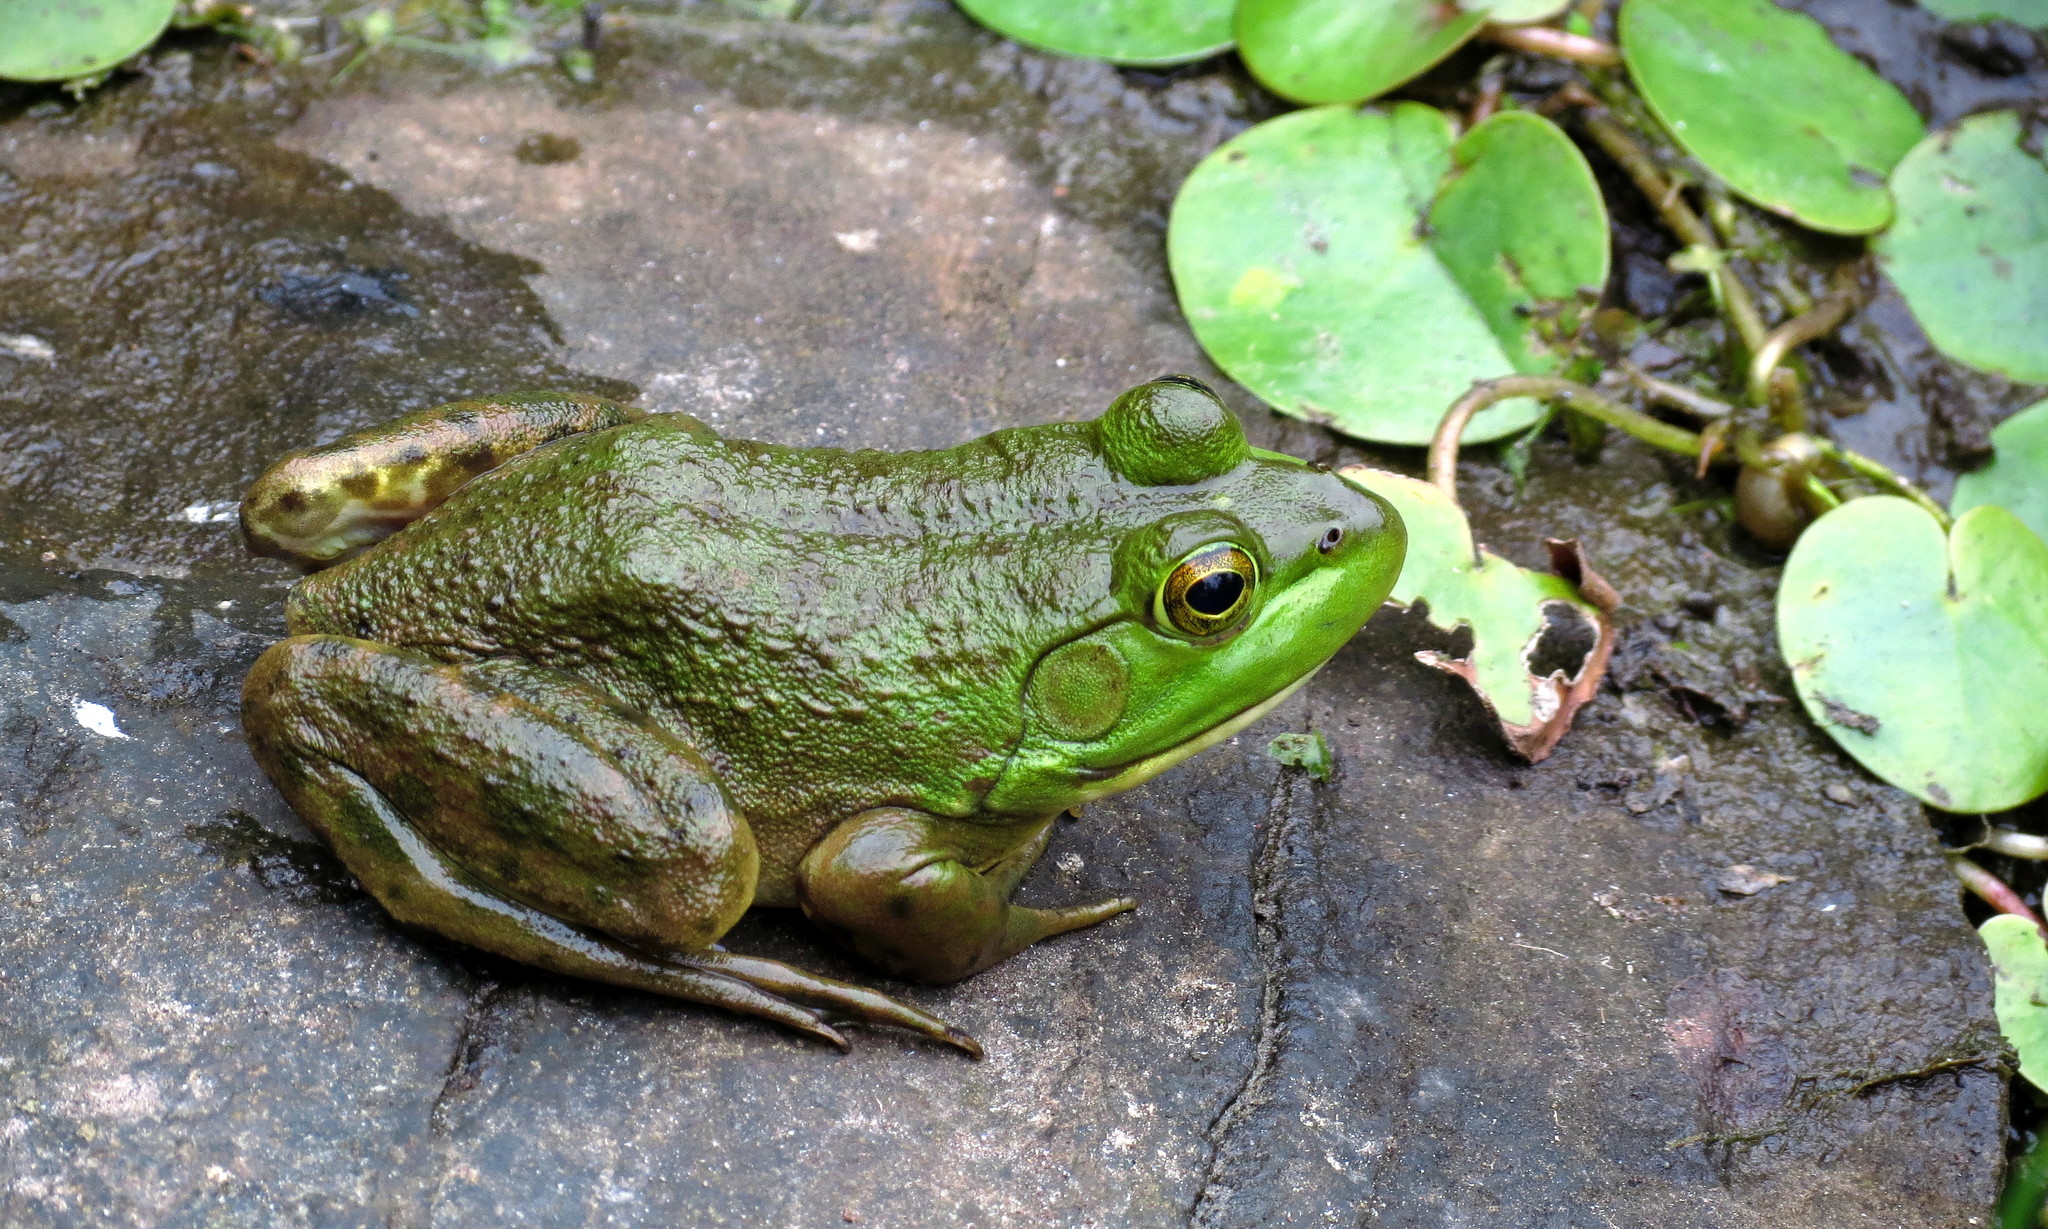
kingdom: Animalia
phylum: Chordata
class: Amphibia
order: Anura
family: Ranidae
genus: Lithobates
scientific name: Lithobates catesbeianus
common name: American bullfrog
